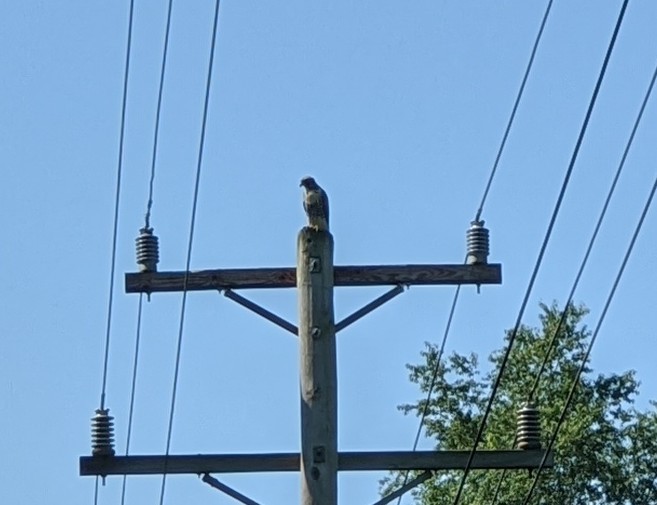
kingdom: Animalia
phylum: Chordata
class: Aves
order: Accipitriformes
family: Accipitridae
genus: Buteo
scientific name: Buteo jamaicensis
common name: Red-tailed hawk
